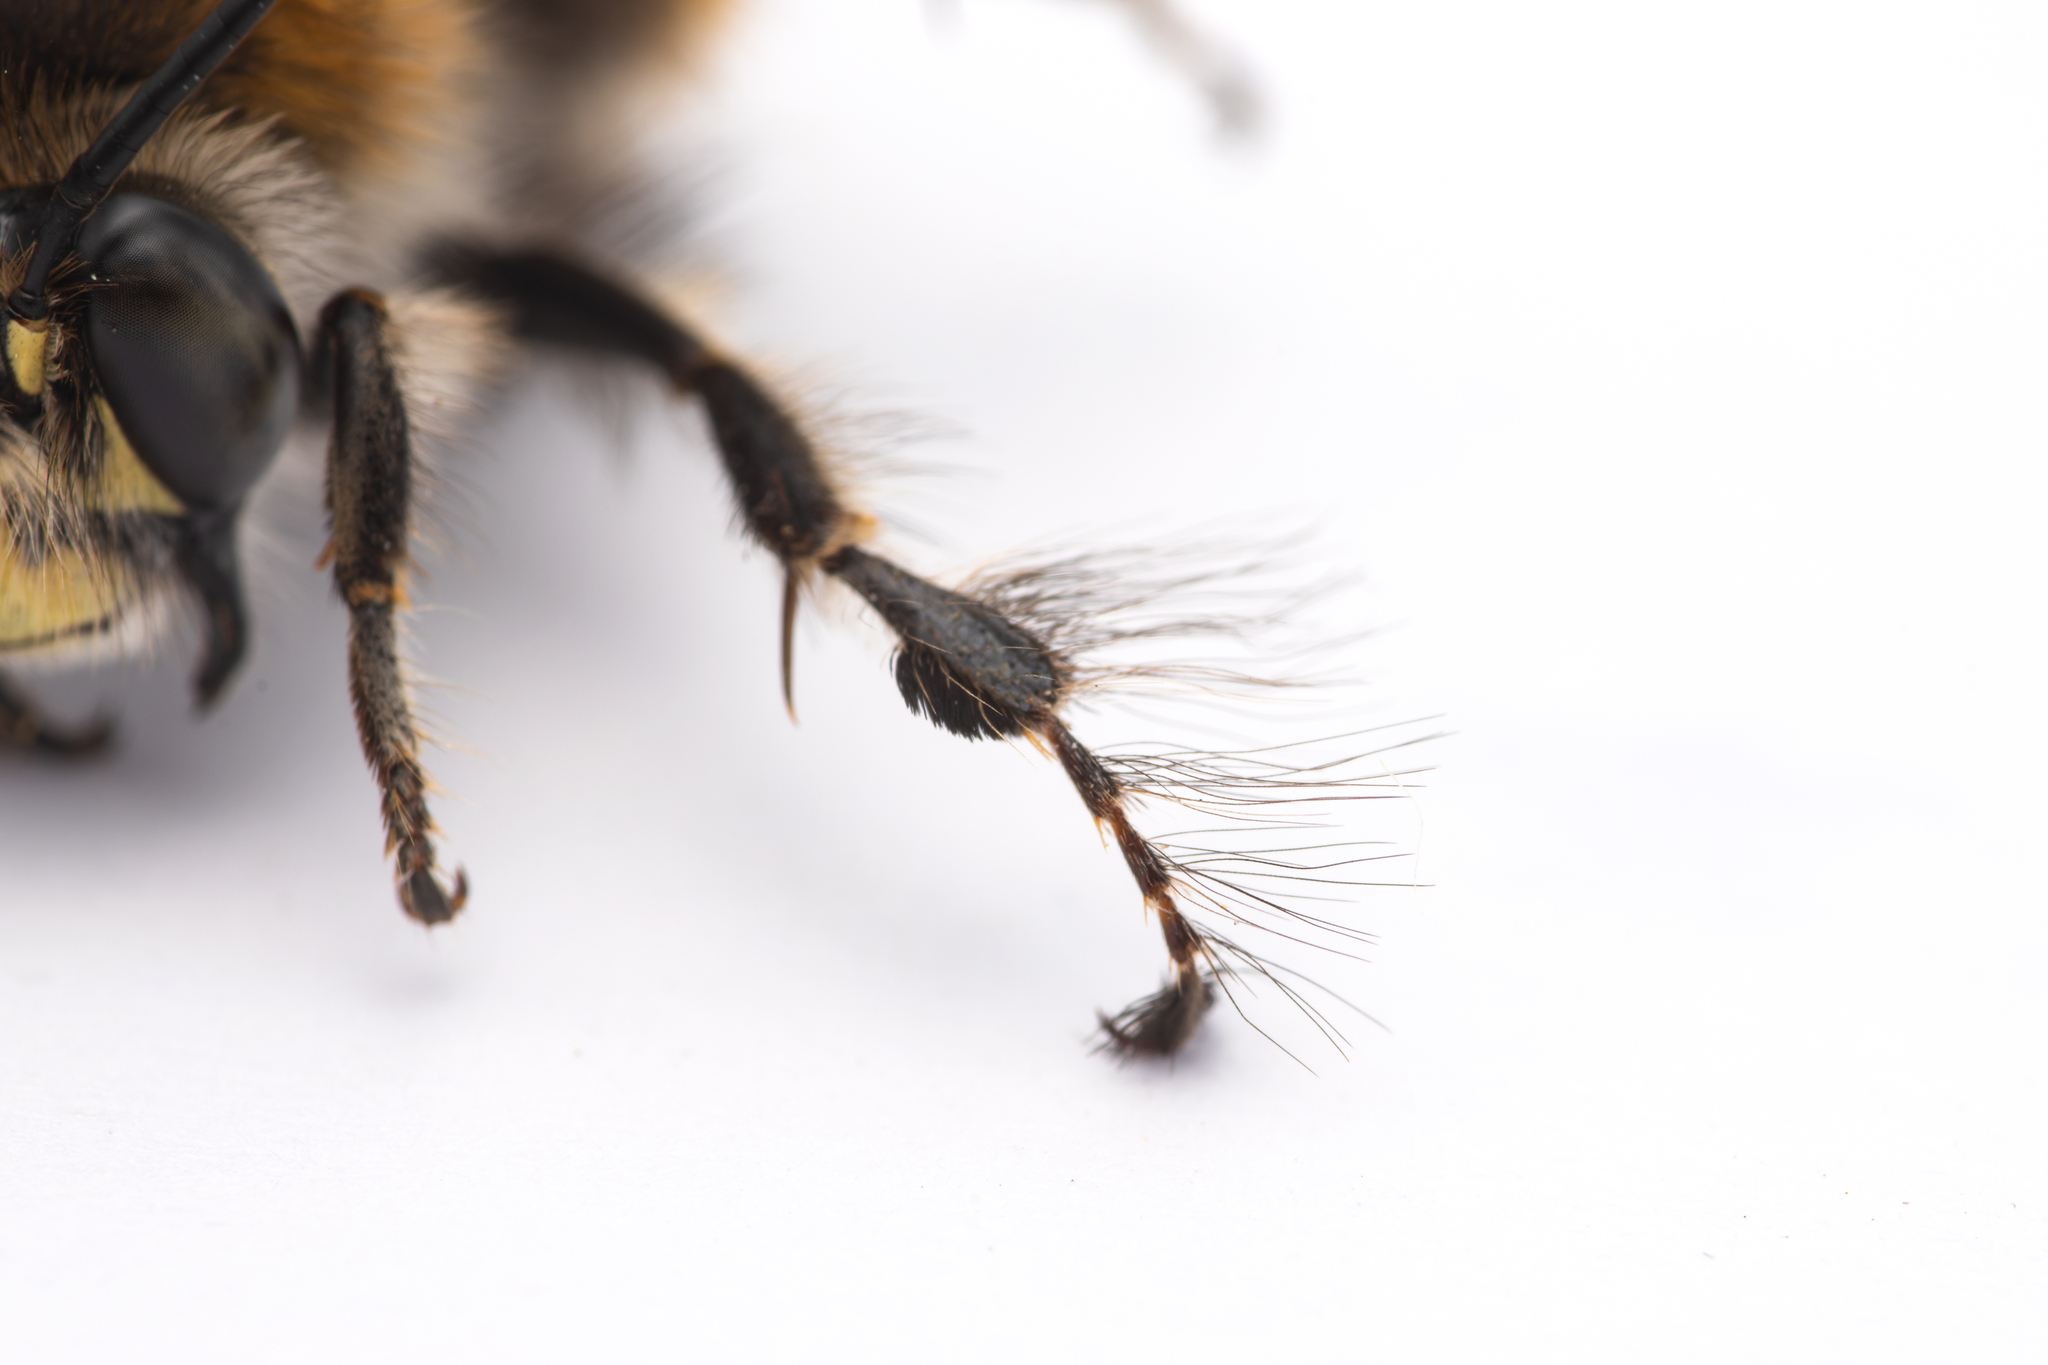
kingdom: Animalia
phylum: Arthropoda
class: Insecta
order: Hymenoptera
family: Apidae
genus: Anthophora
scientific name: Anthophora plumipes
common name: Hairy-footed flower bee
